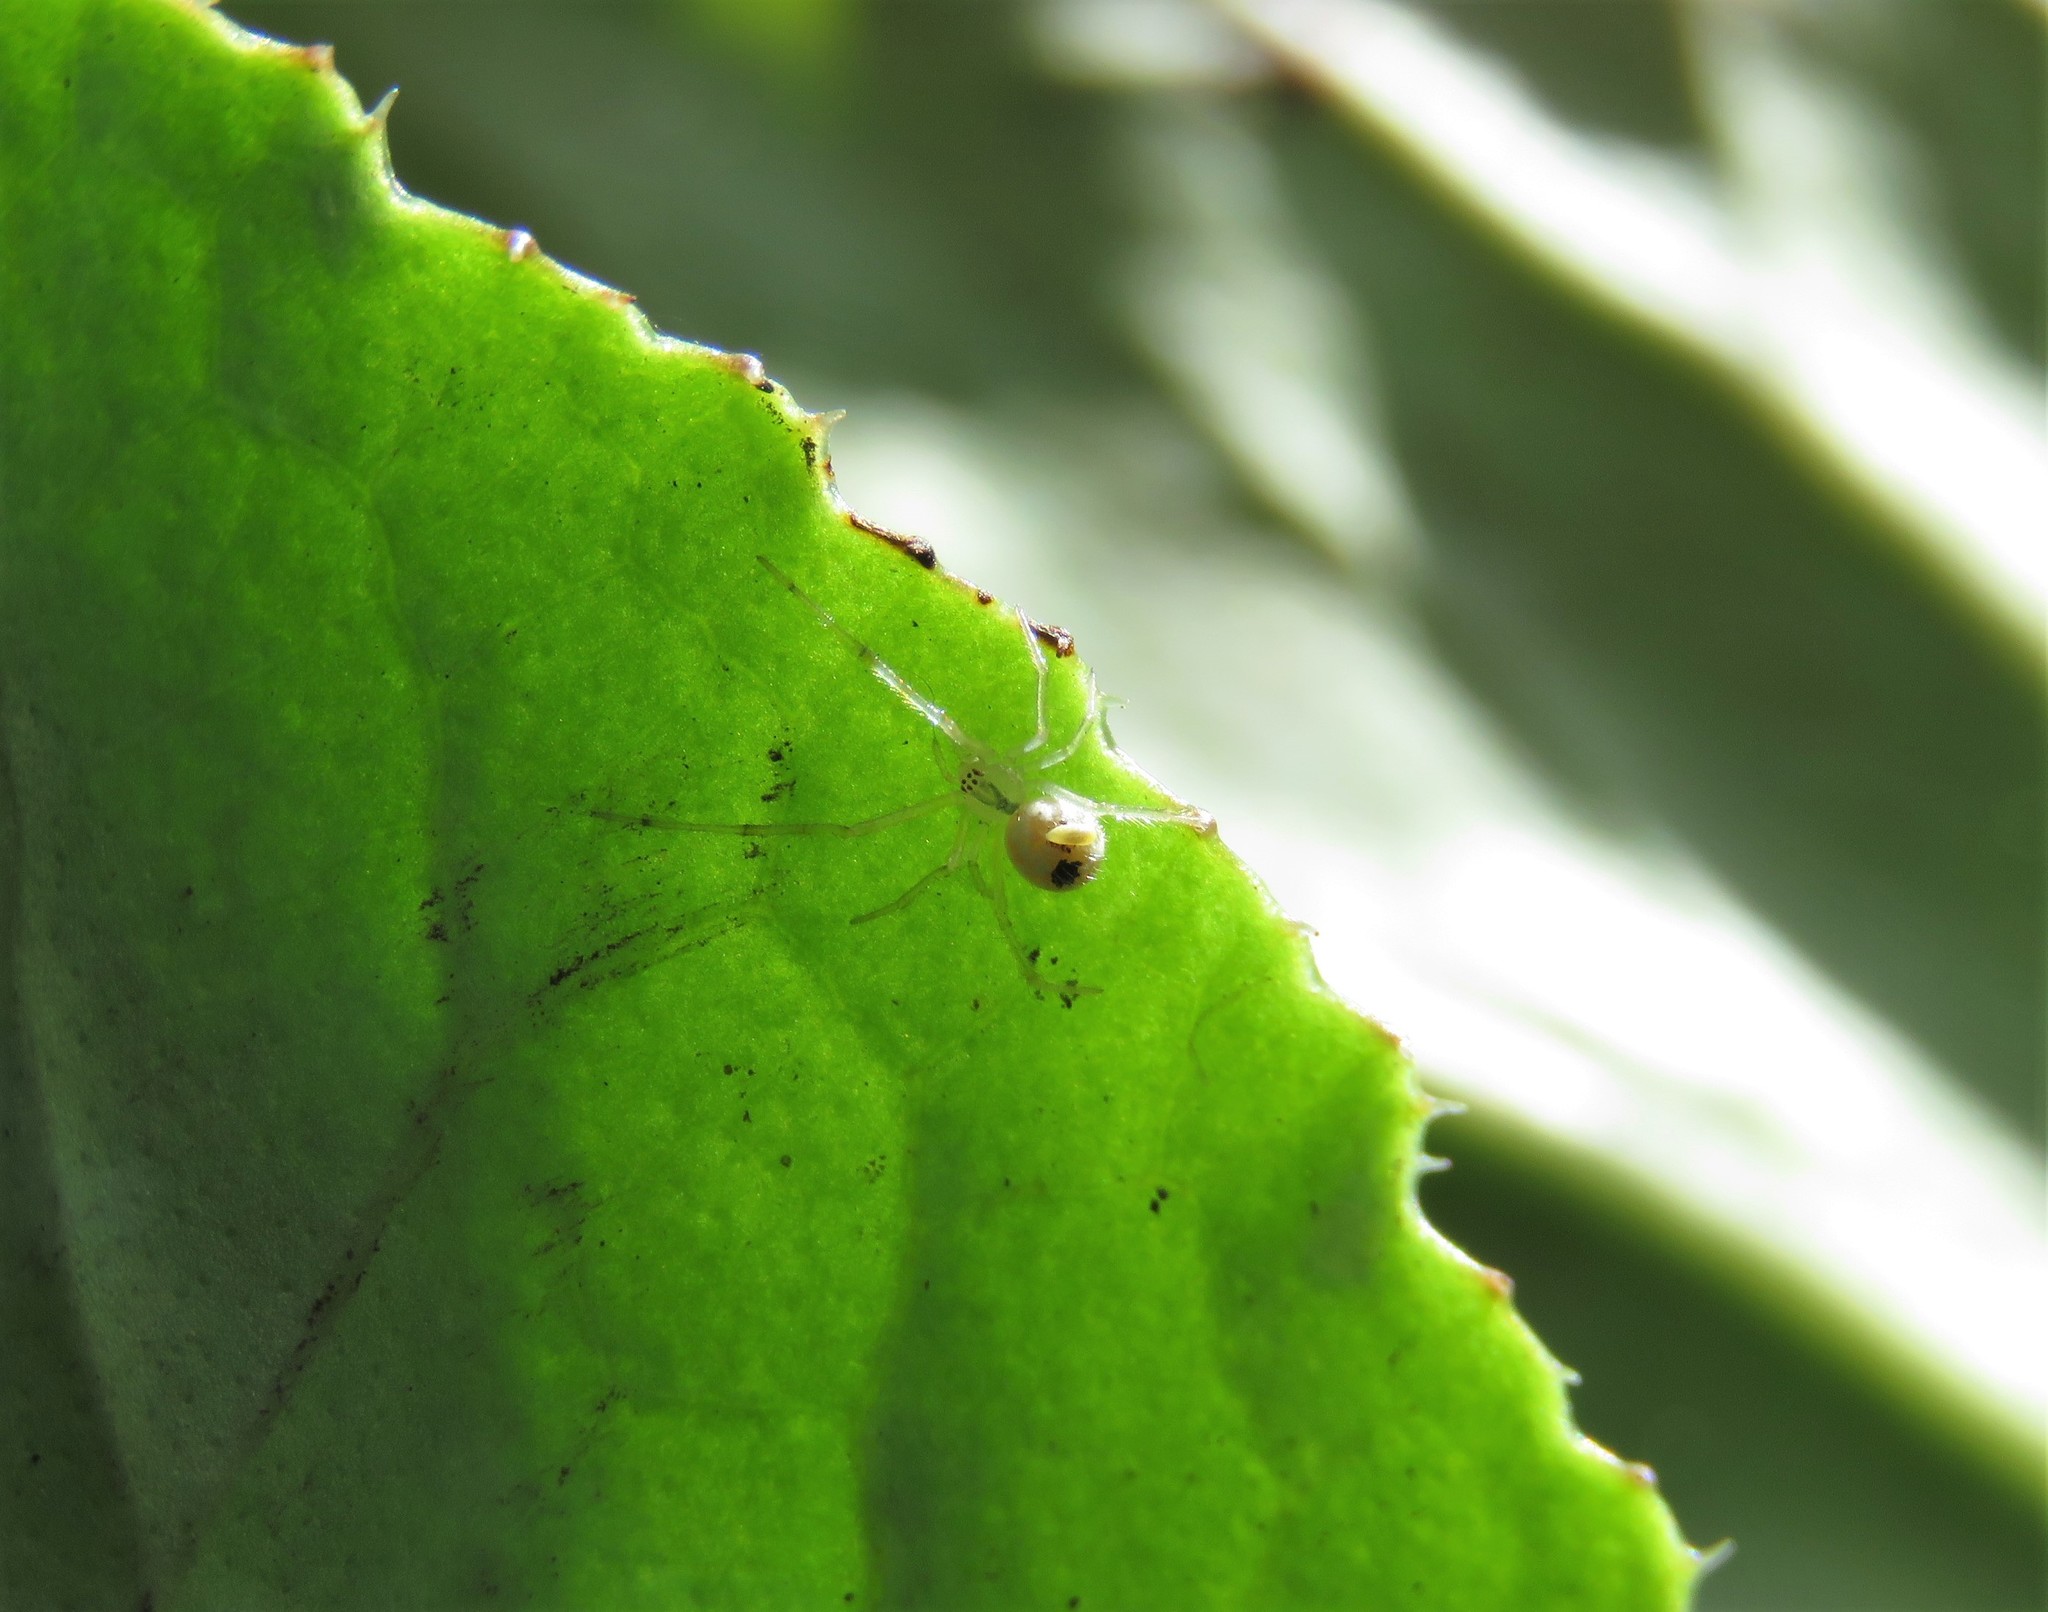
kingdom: Animalia
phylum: Arthropoda
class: Arachnida
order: Araneae
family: Theridiidae
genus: Theridion
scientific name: Theridion frizzellorum
